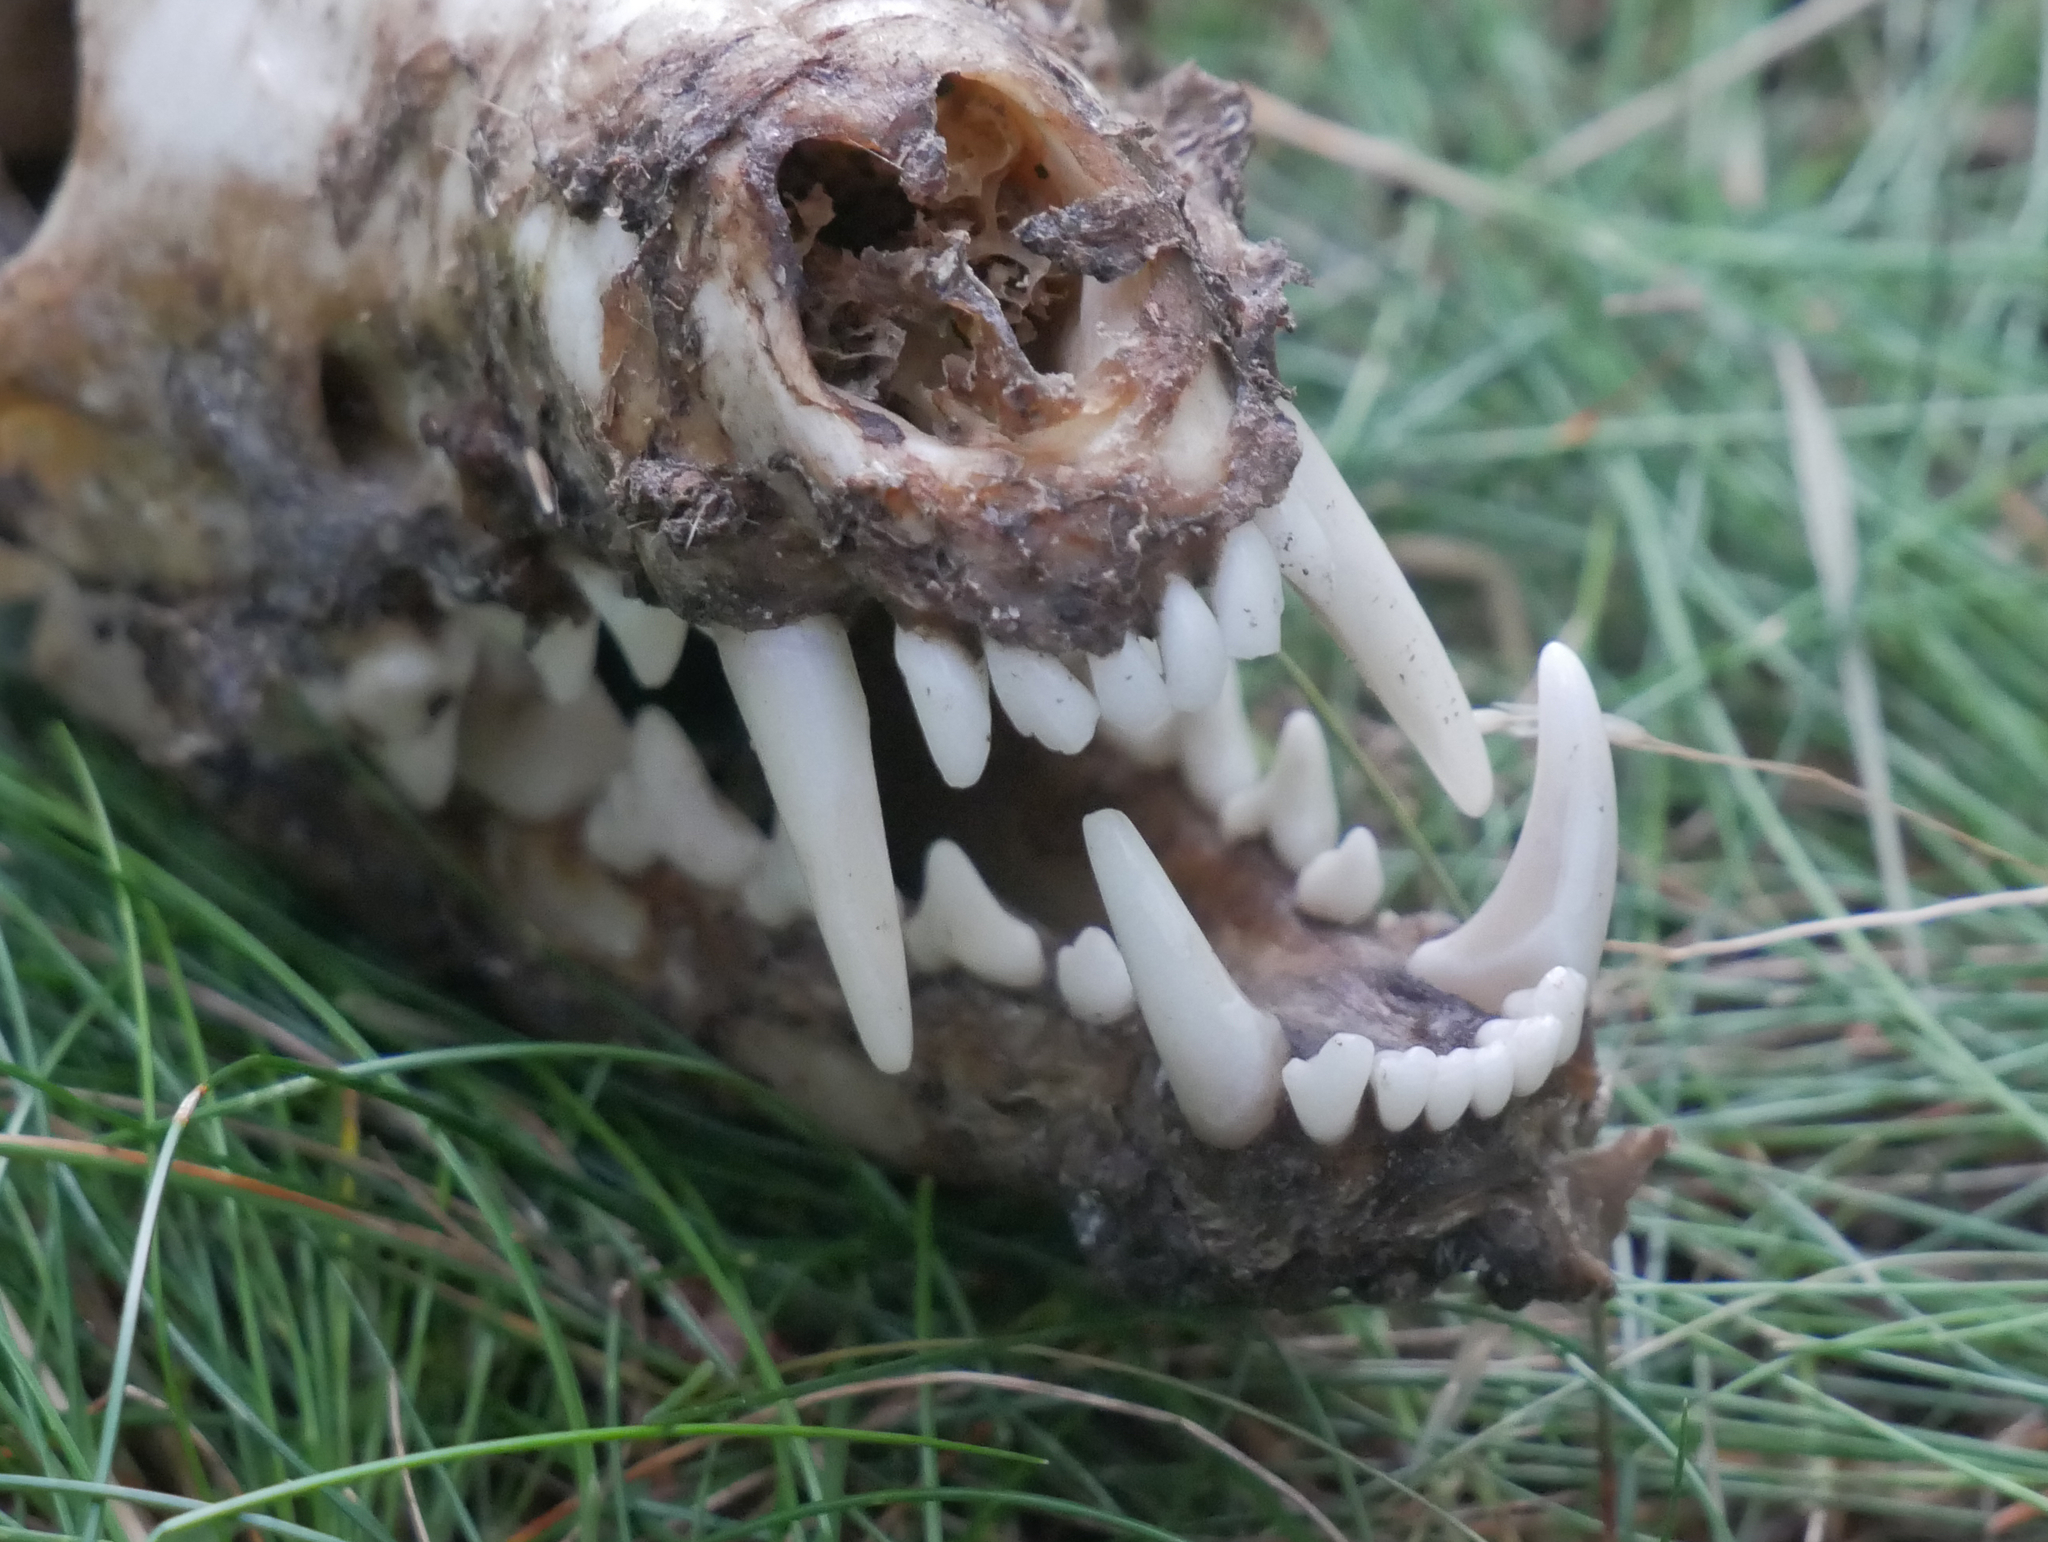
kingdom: Animalia
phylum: Chordata
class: Mammalia
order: Carnivora
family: Canidae
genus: Vulpes
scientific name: Vulpes vulpes
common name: Red fox
